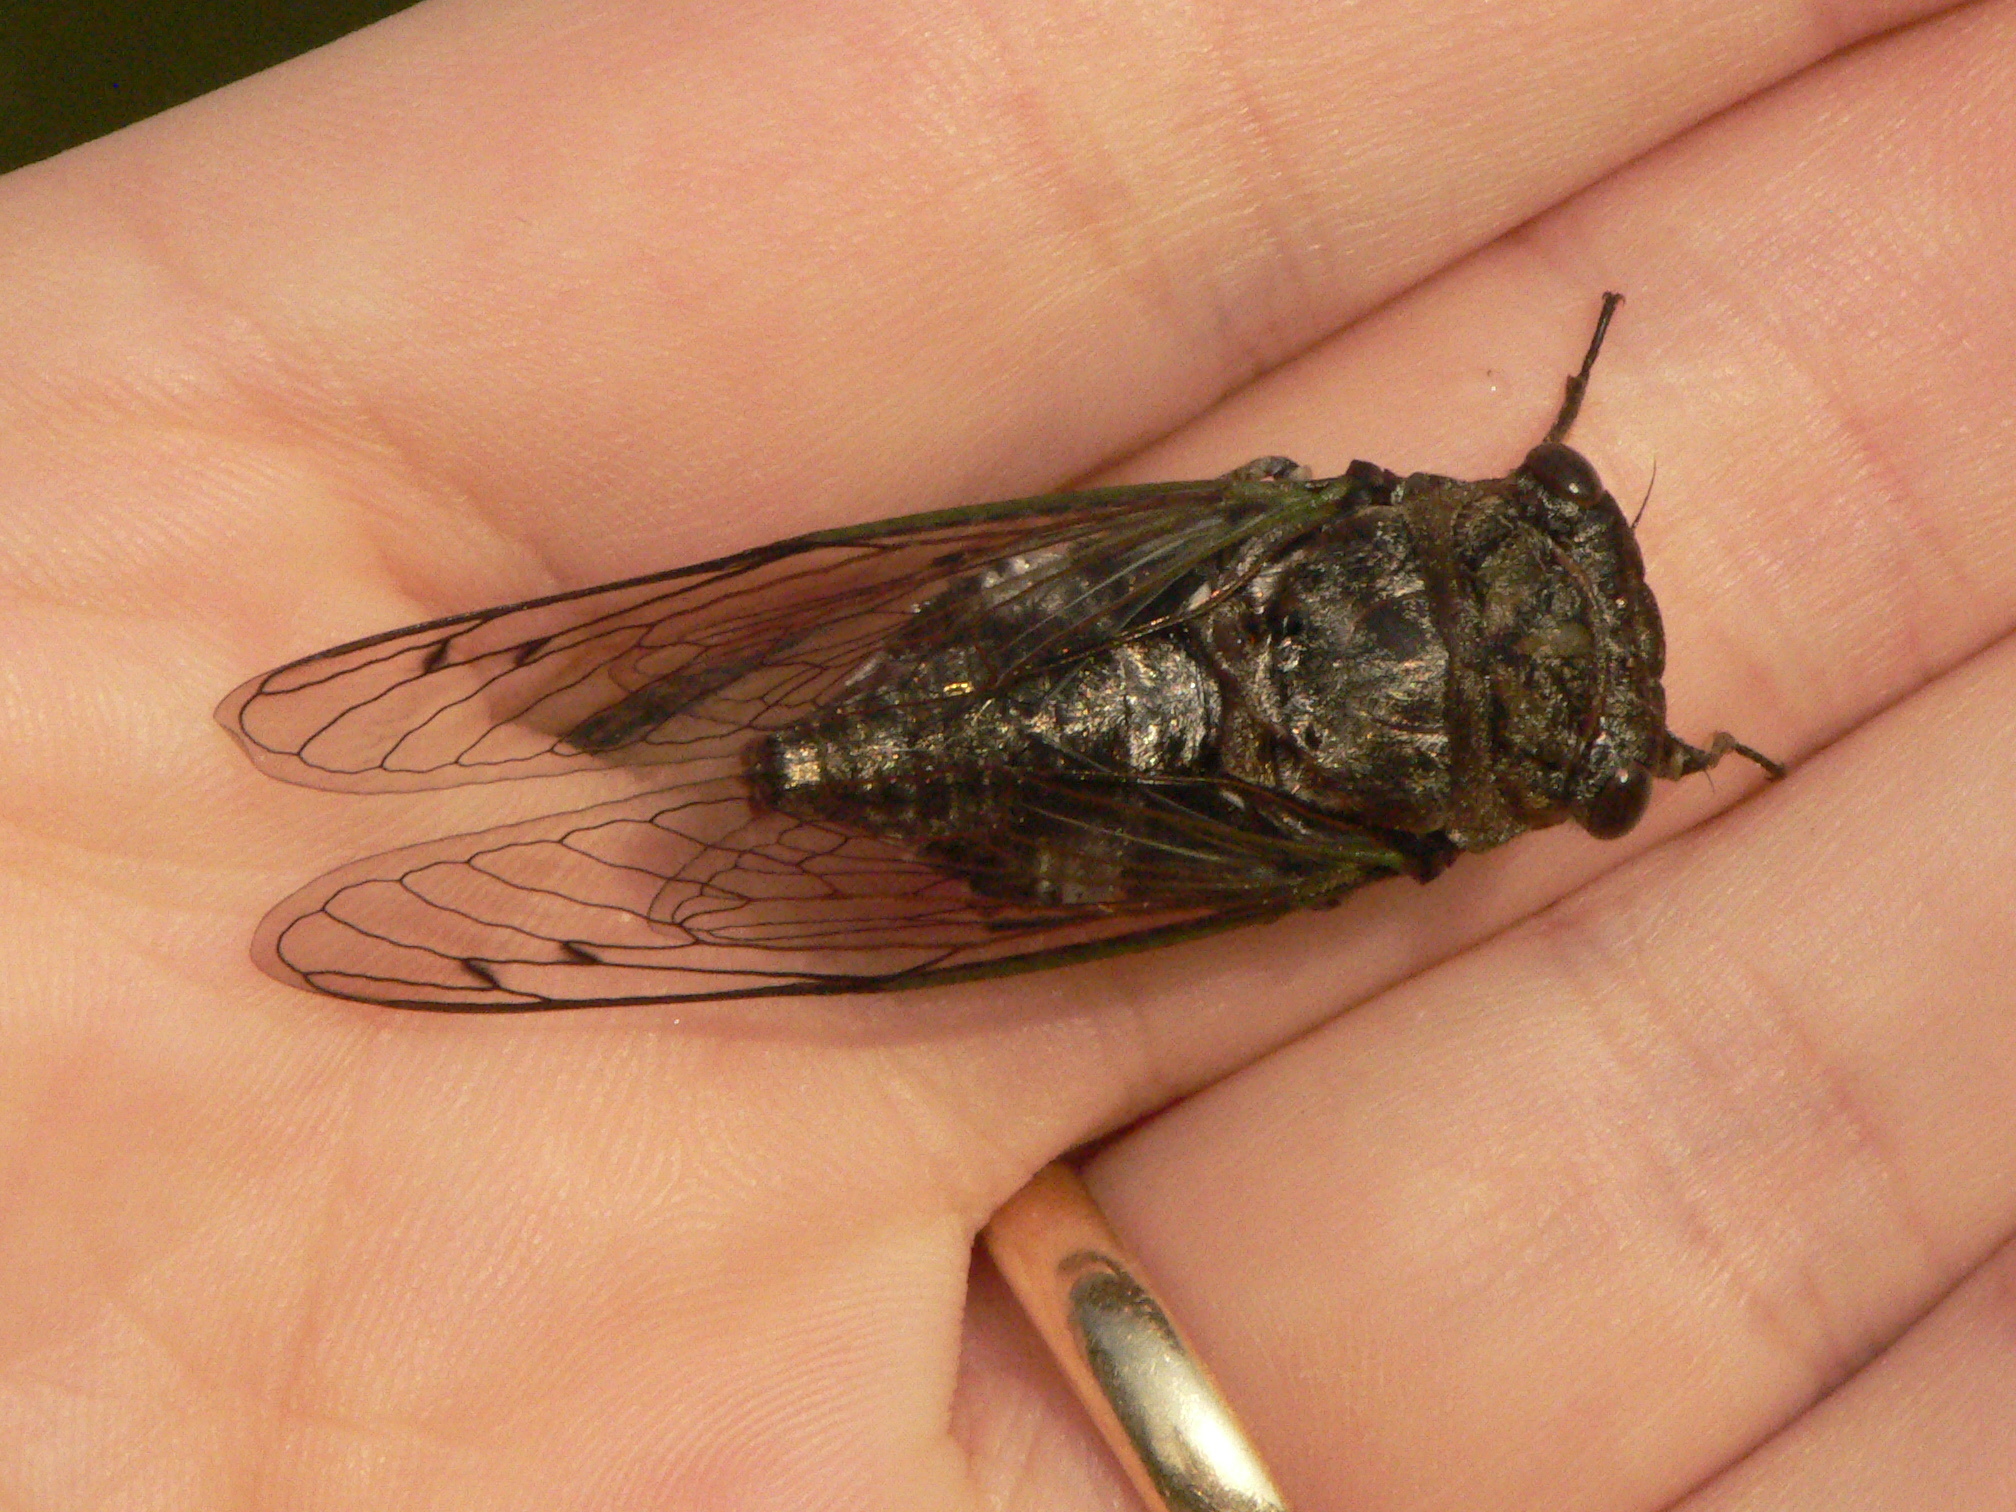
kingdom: Animalia
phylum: Arthropoda
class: Insecta
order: Hemiptera
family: Cicadidae
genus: Neotibicen
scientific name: Neotibicen canicularis
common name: God-day cicada
